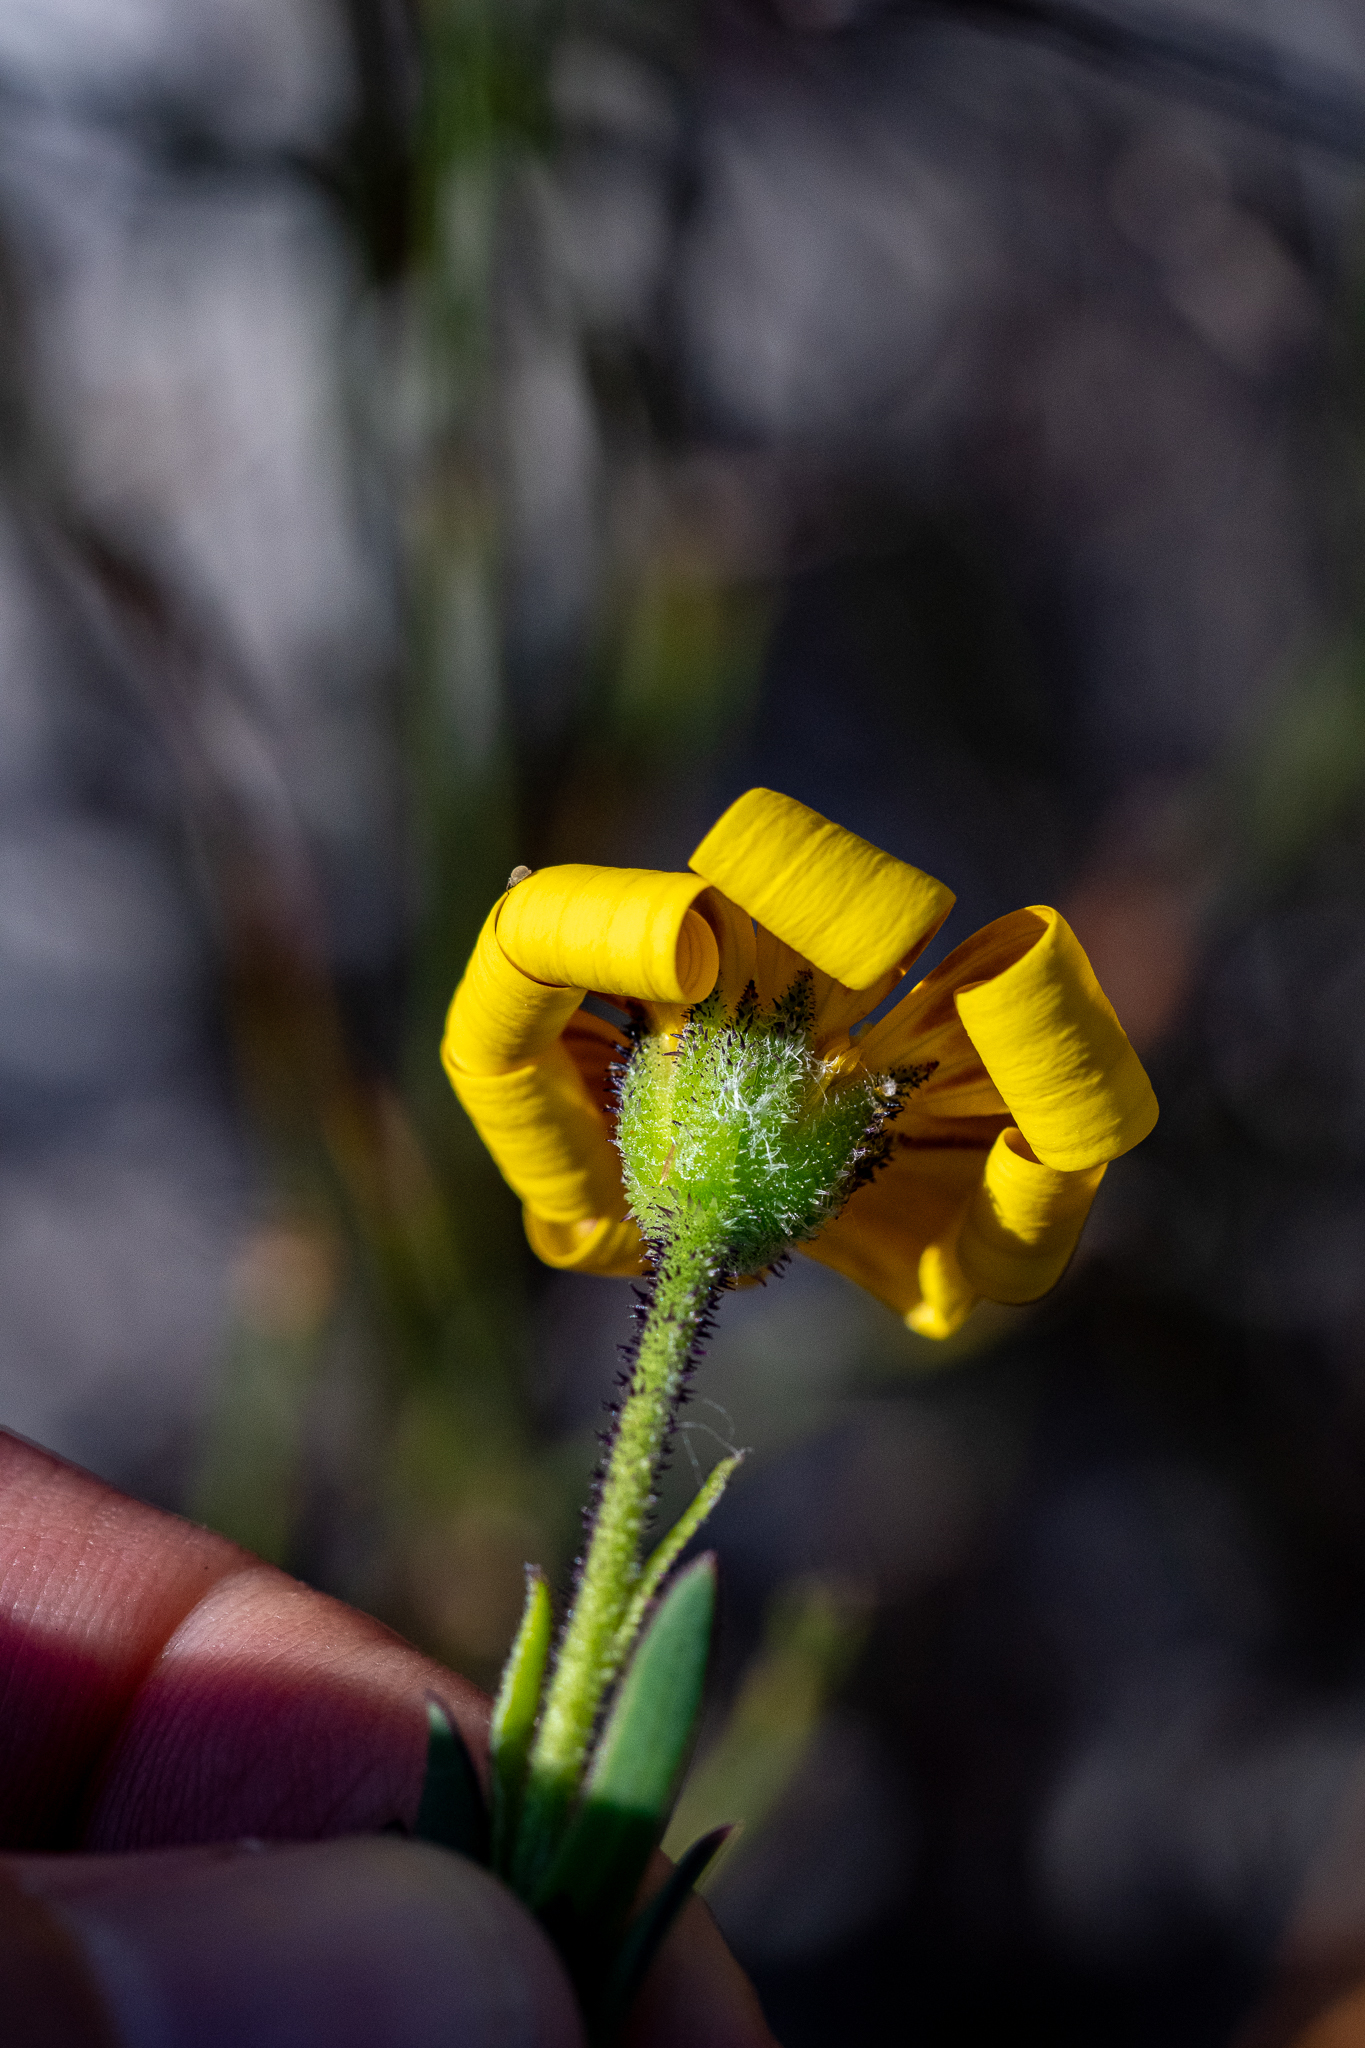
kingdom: Plantae
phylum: Tracheophyta
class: Magnoliopsida
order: Asterales
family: Asteraceae
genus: Osteospermum
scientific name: Osteospermum polygaloides
